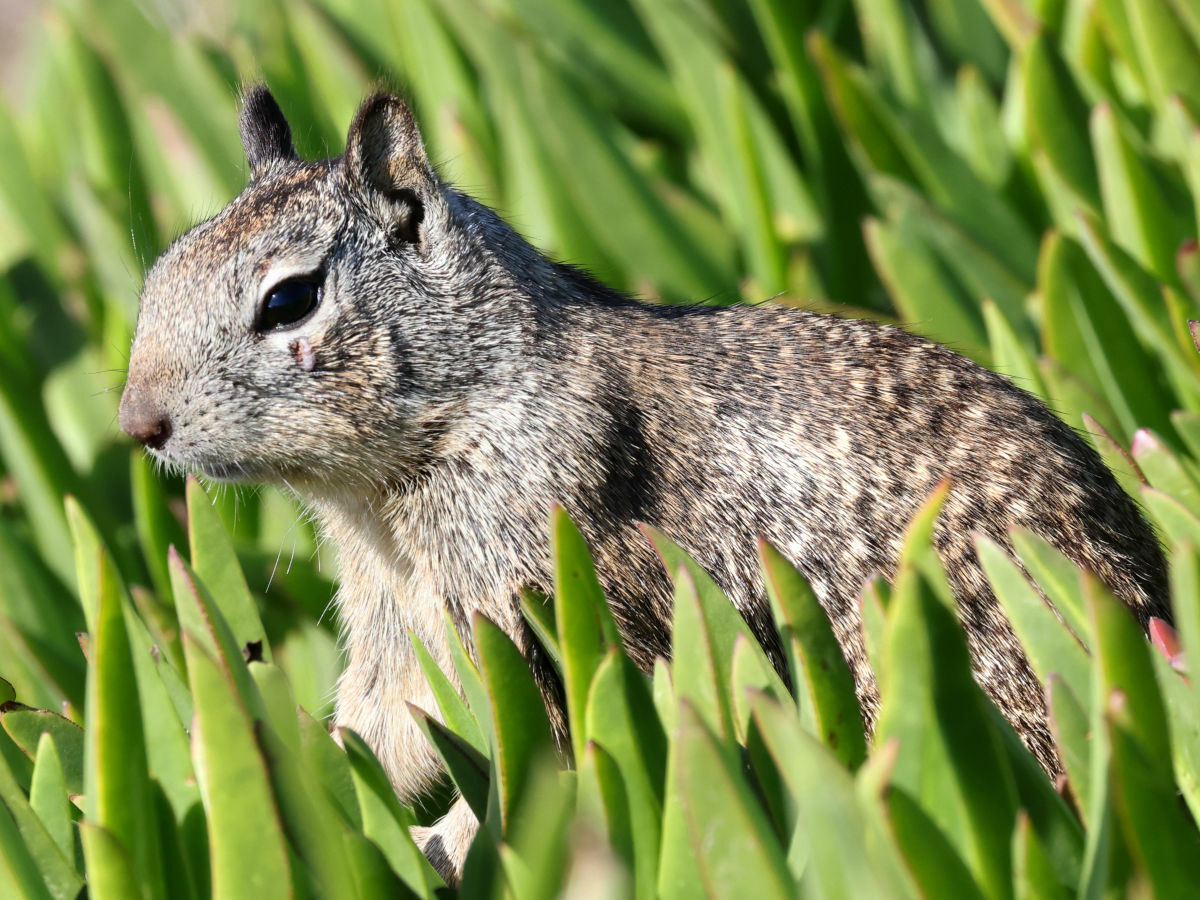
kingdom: Animalia
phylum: Chordata
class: Mammalia
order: Rodentia
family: Sciuridae
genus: Otospermophilus
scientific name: Otospermophilus beecheyi
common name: California ground squirrel
